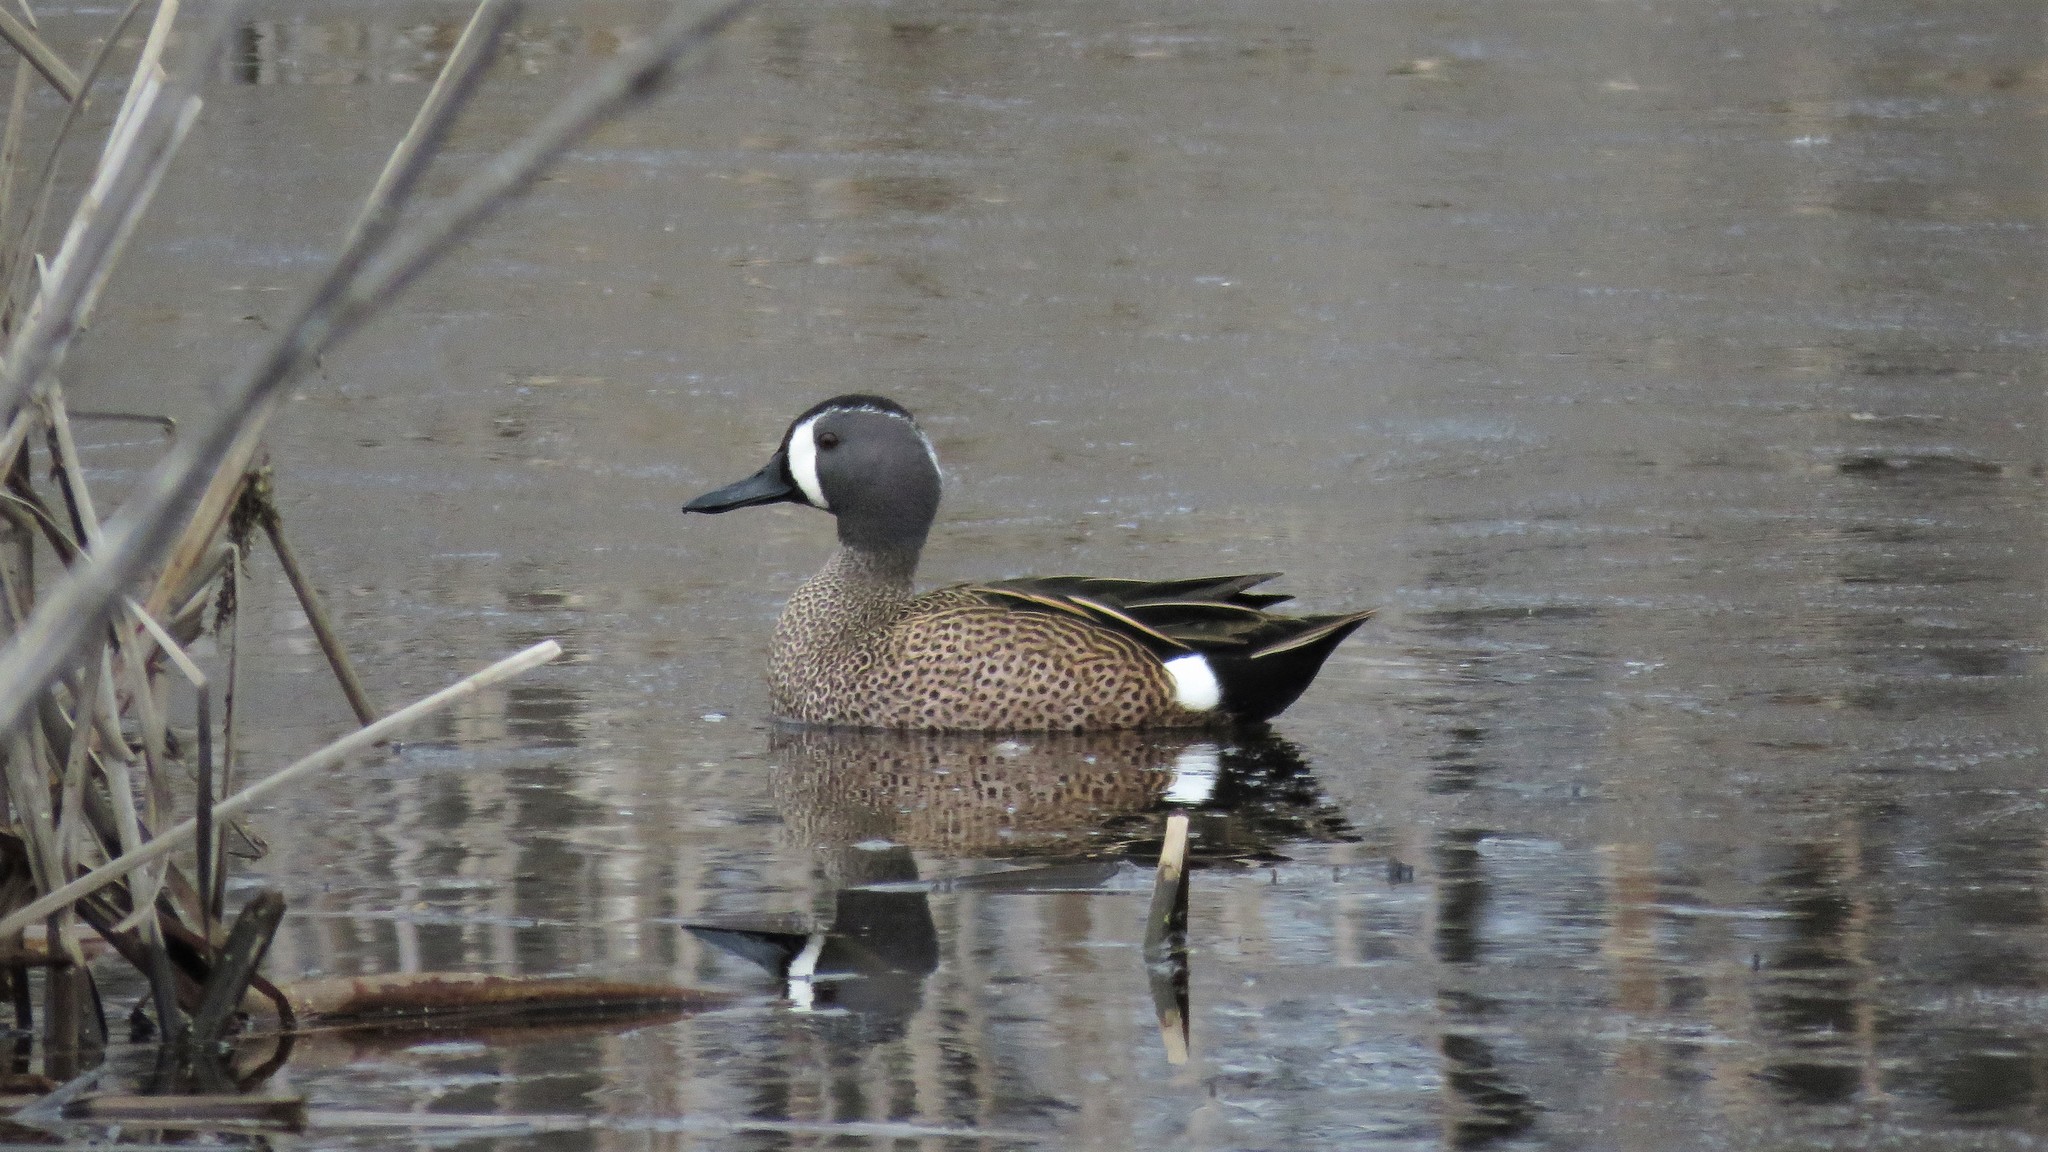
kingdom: Animalia
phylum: Chordata
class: Aves
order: Anseriformes
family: Anatidae
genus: Spatula
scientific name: Spatula discors
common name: Blue-winged teal
